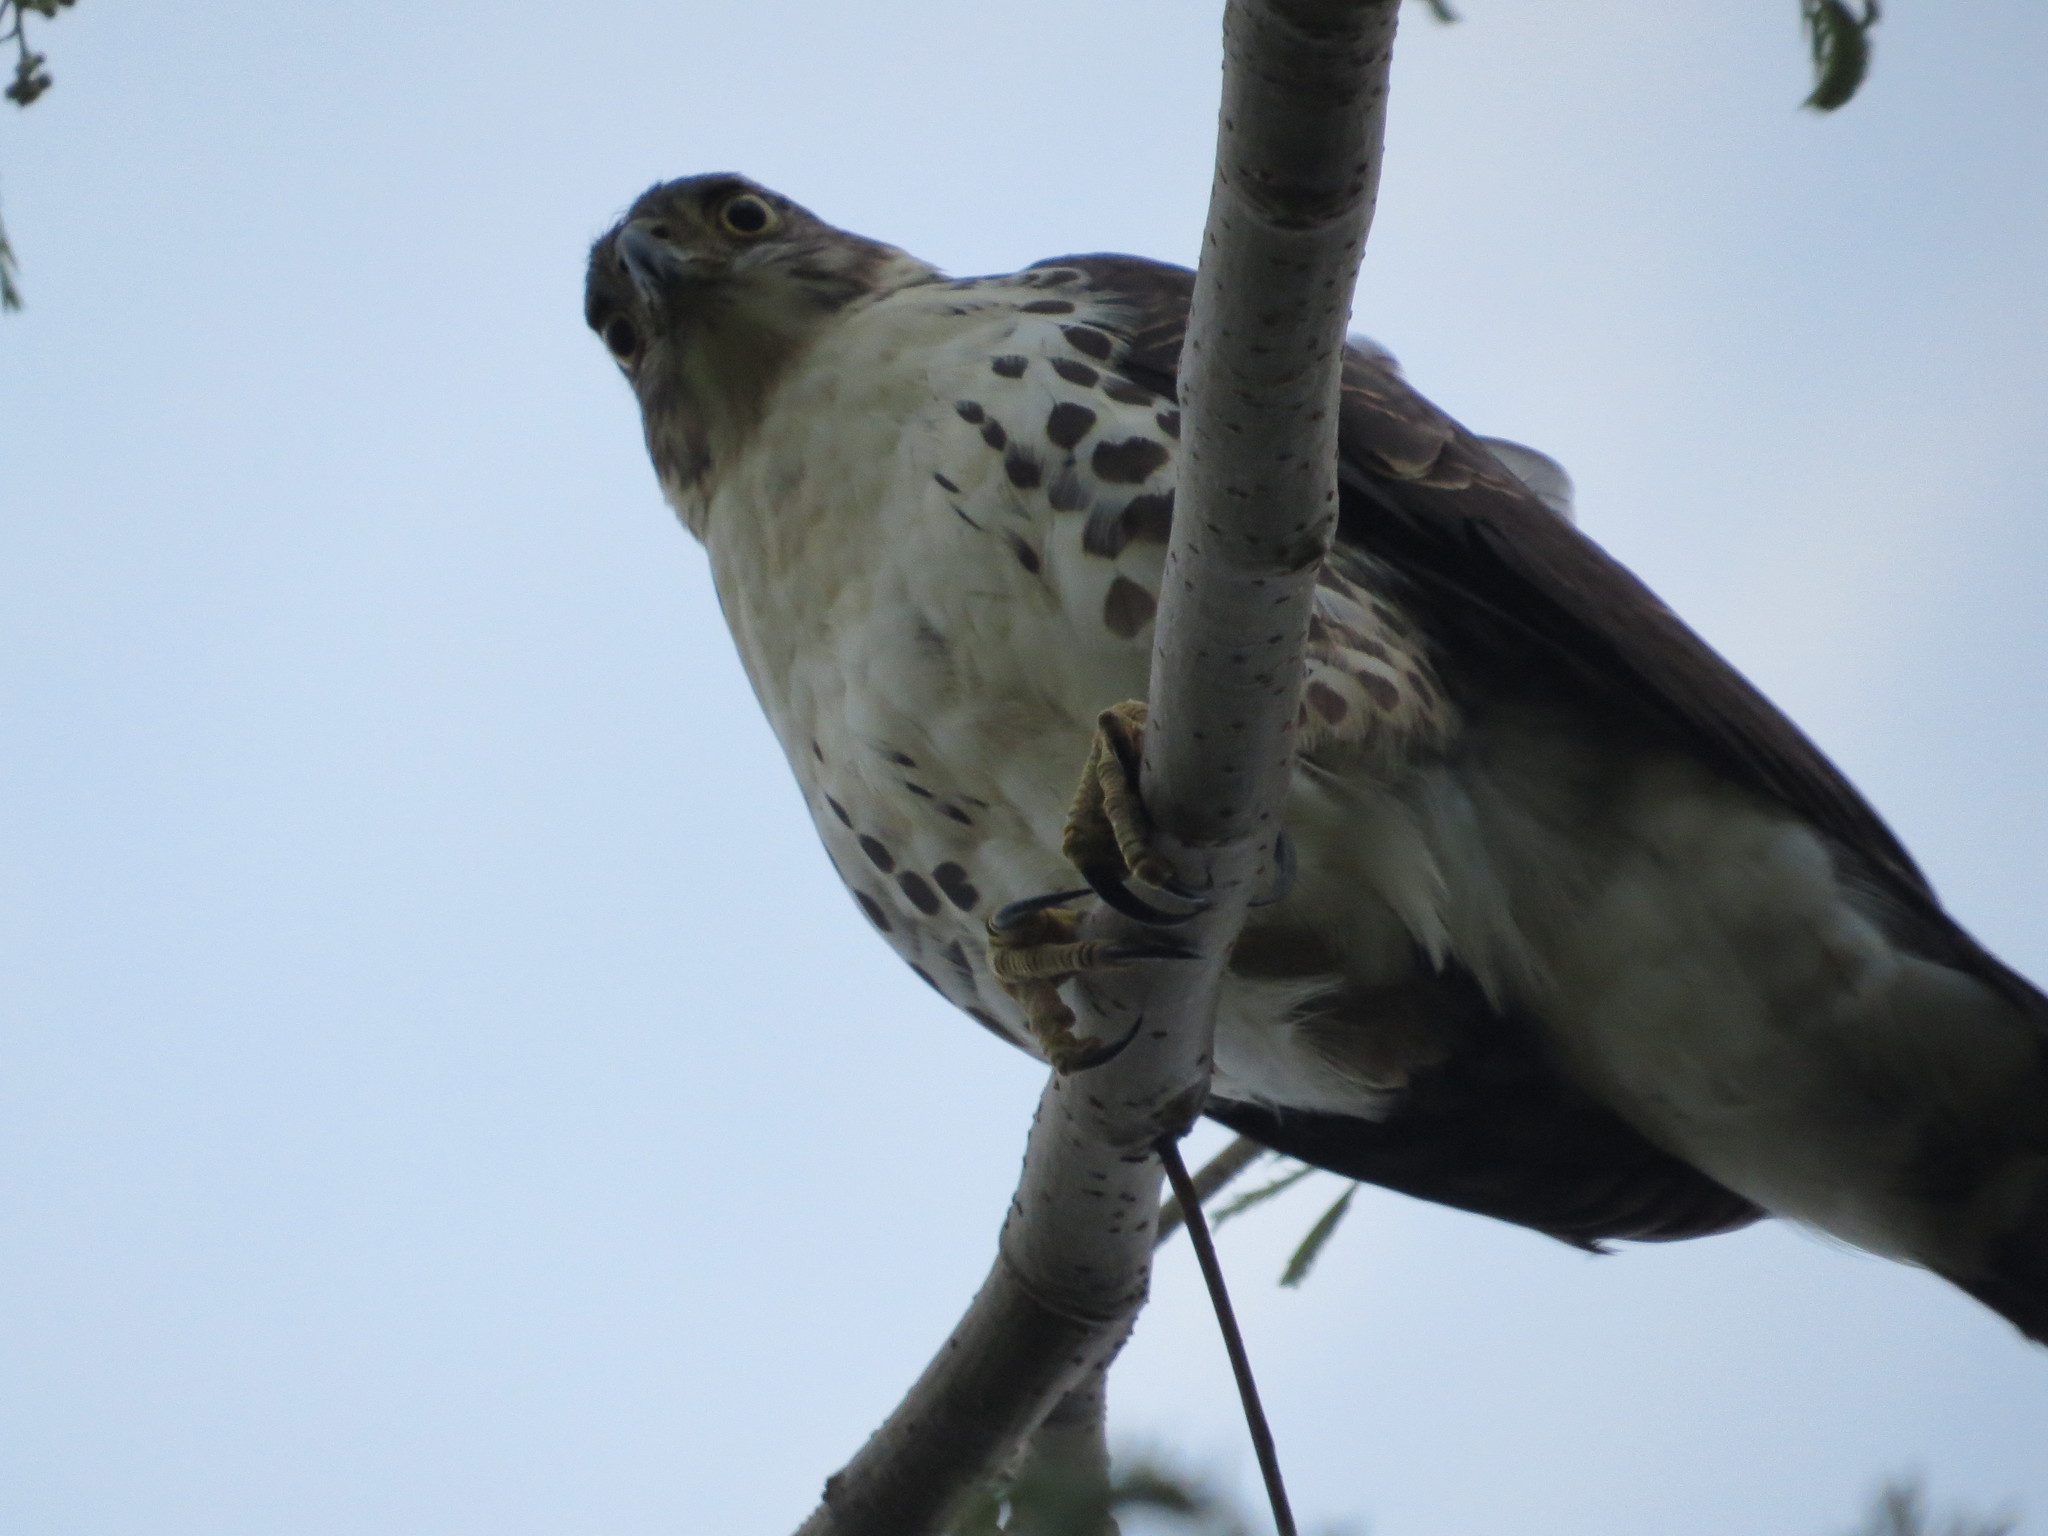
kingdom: Animalia
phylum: Chordata
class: Aves
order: Accipitriformes
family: Accipitridae
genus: Accipiter
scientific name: Accipiter bicolor
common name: Bicolored hawk
